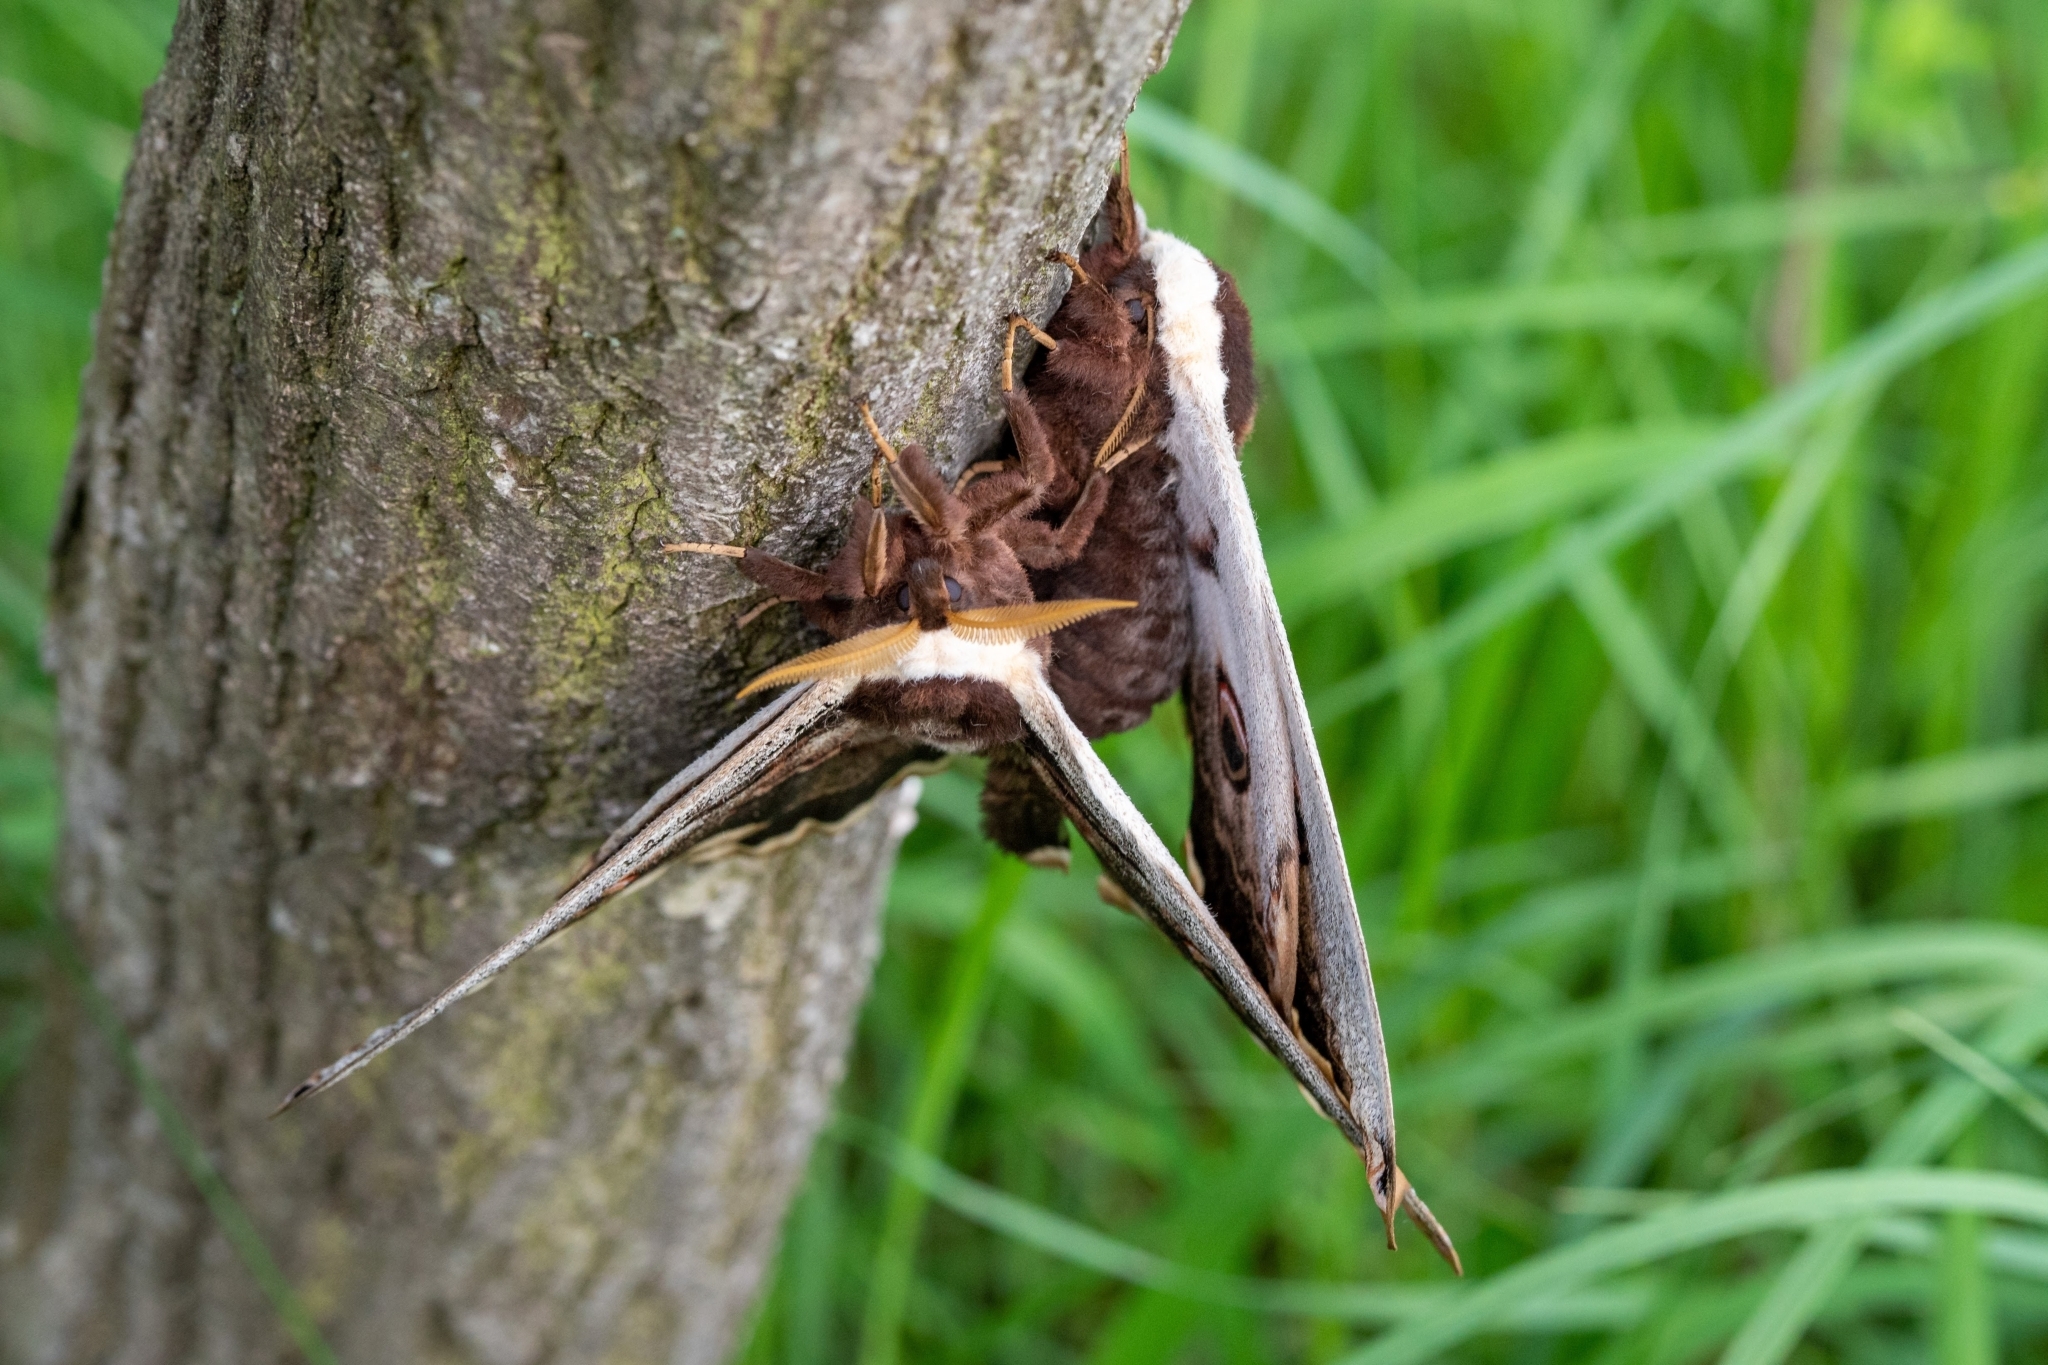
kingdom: Animalia
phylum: Arthropoda
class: Insecta
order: Lepidoptera
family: Saturniidae
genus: Saturnia
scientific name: Saturnia pyri
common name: Great peacock moth
